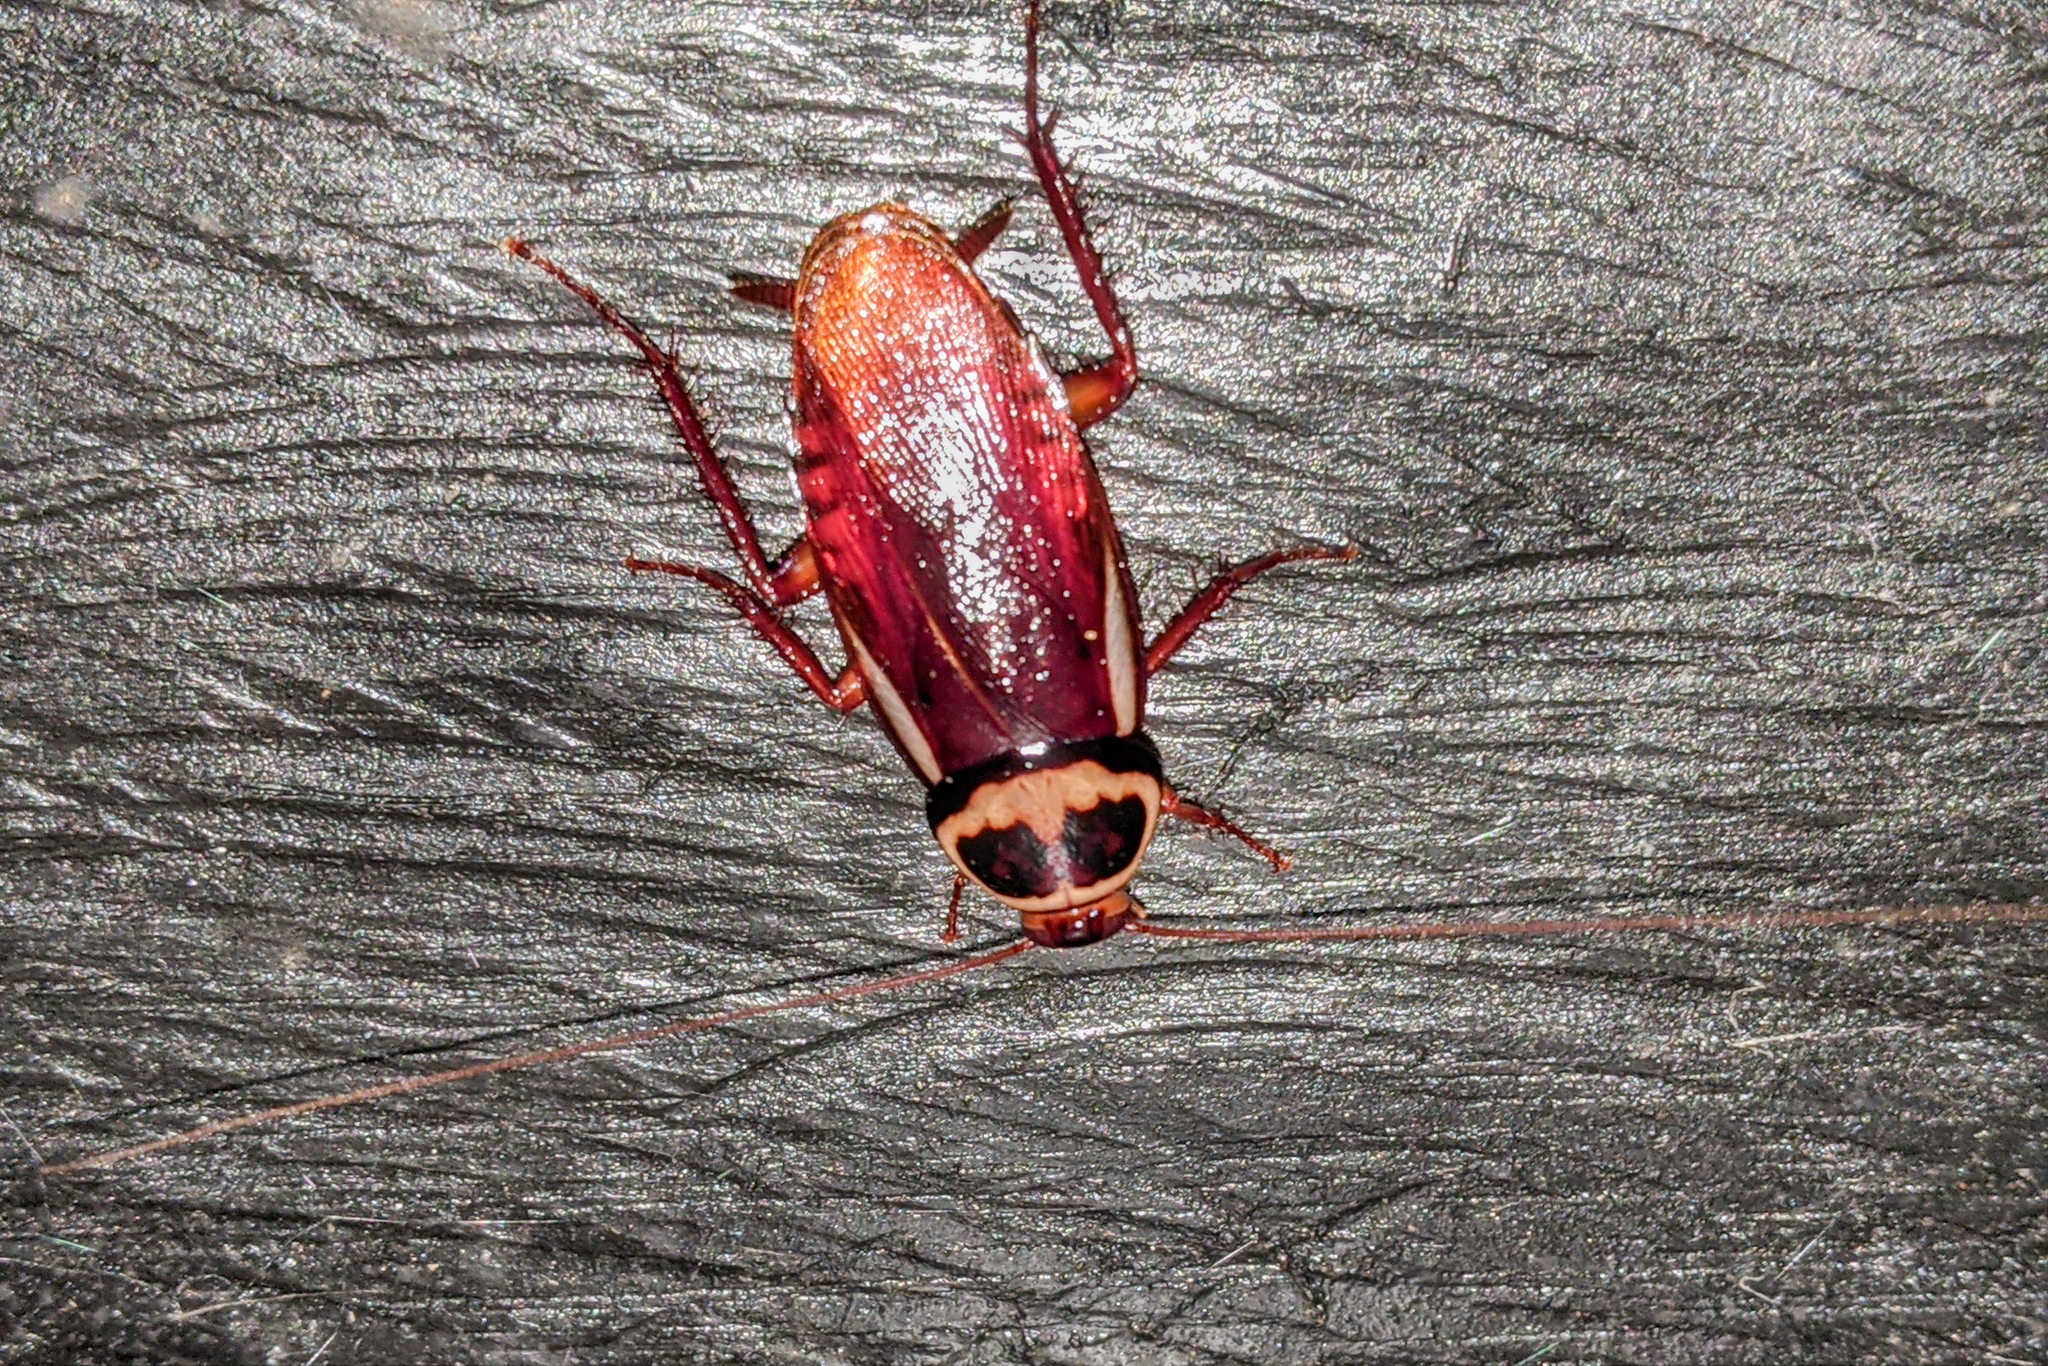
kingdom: Animalia
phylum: Arthropoda
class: Insecta
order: Blattodea
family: Blattidae
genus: Periplaneta
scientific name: Periplaneta australasiae
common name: Australian cockroach
